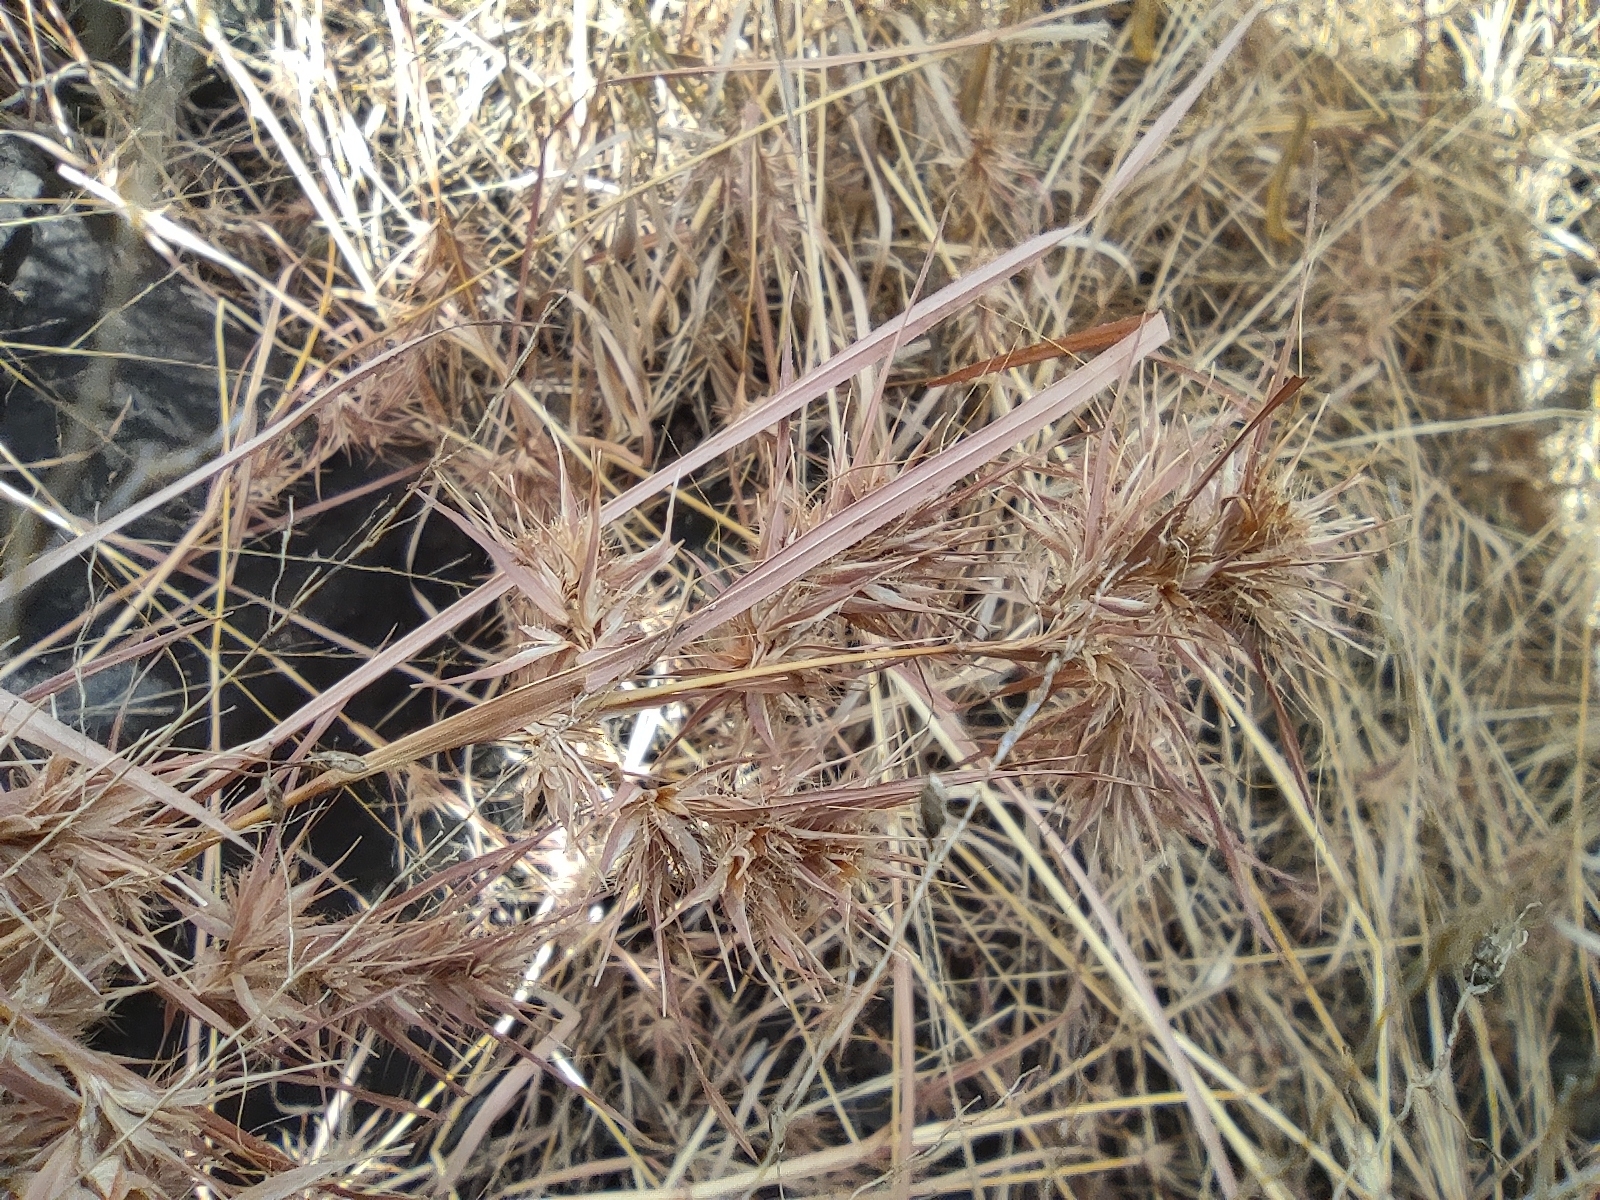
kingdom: Plantae
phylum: Tracheophyta
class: Liliopsida
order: Poales
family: Poaceae
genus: Themeda
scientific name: Themeda quadrivalvis
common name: Kangaroo grass
